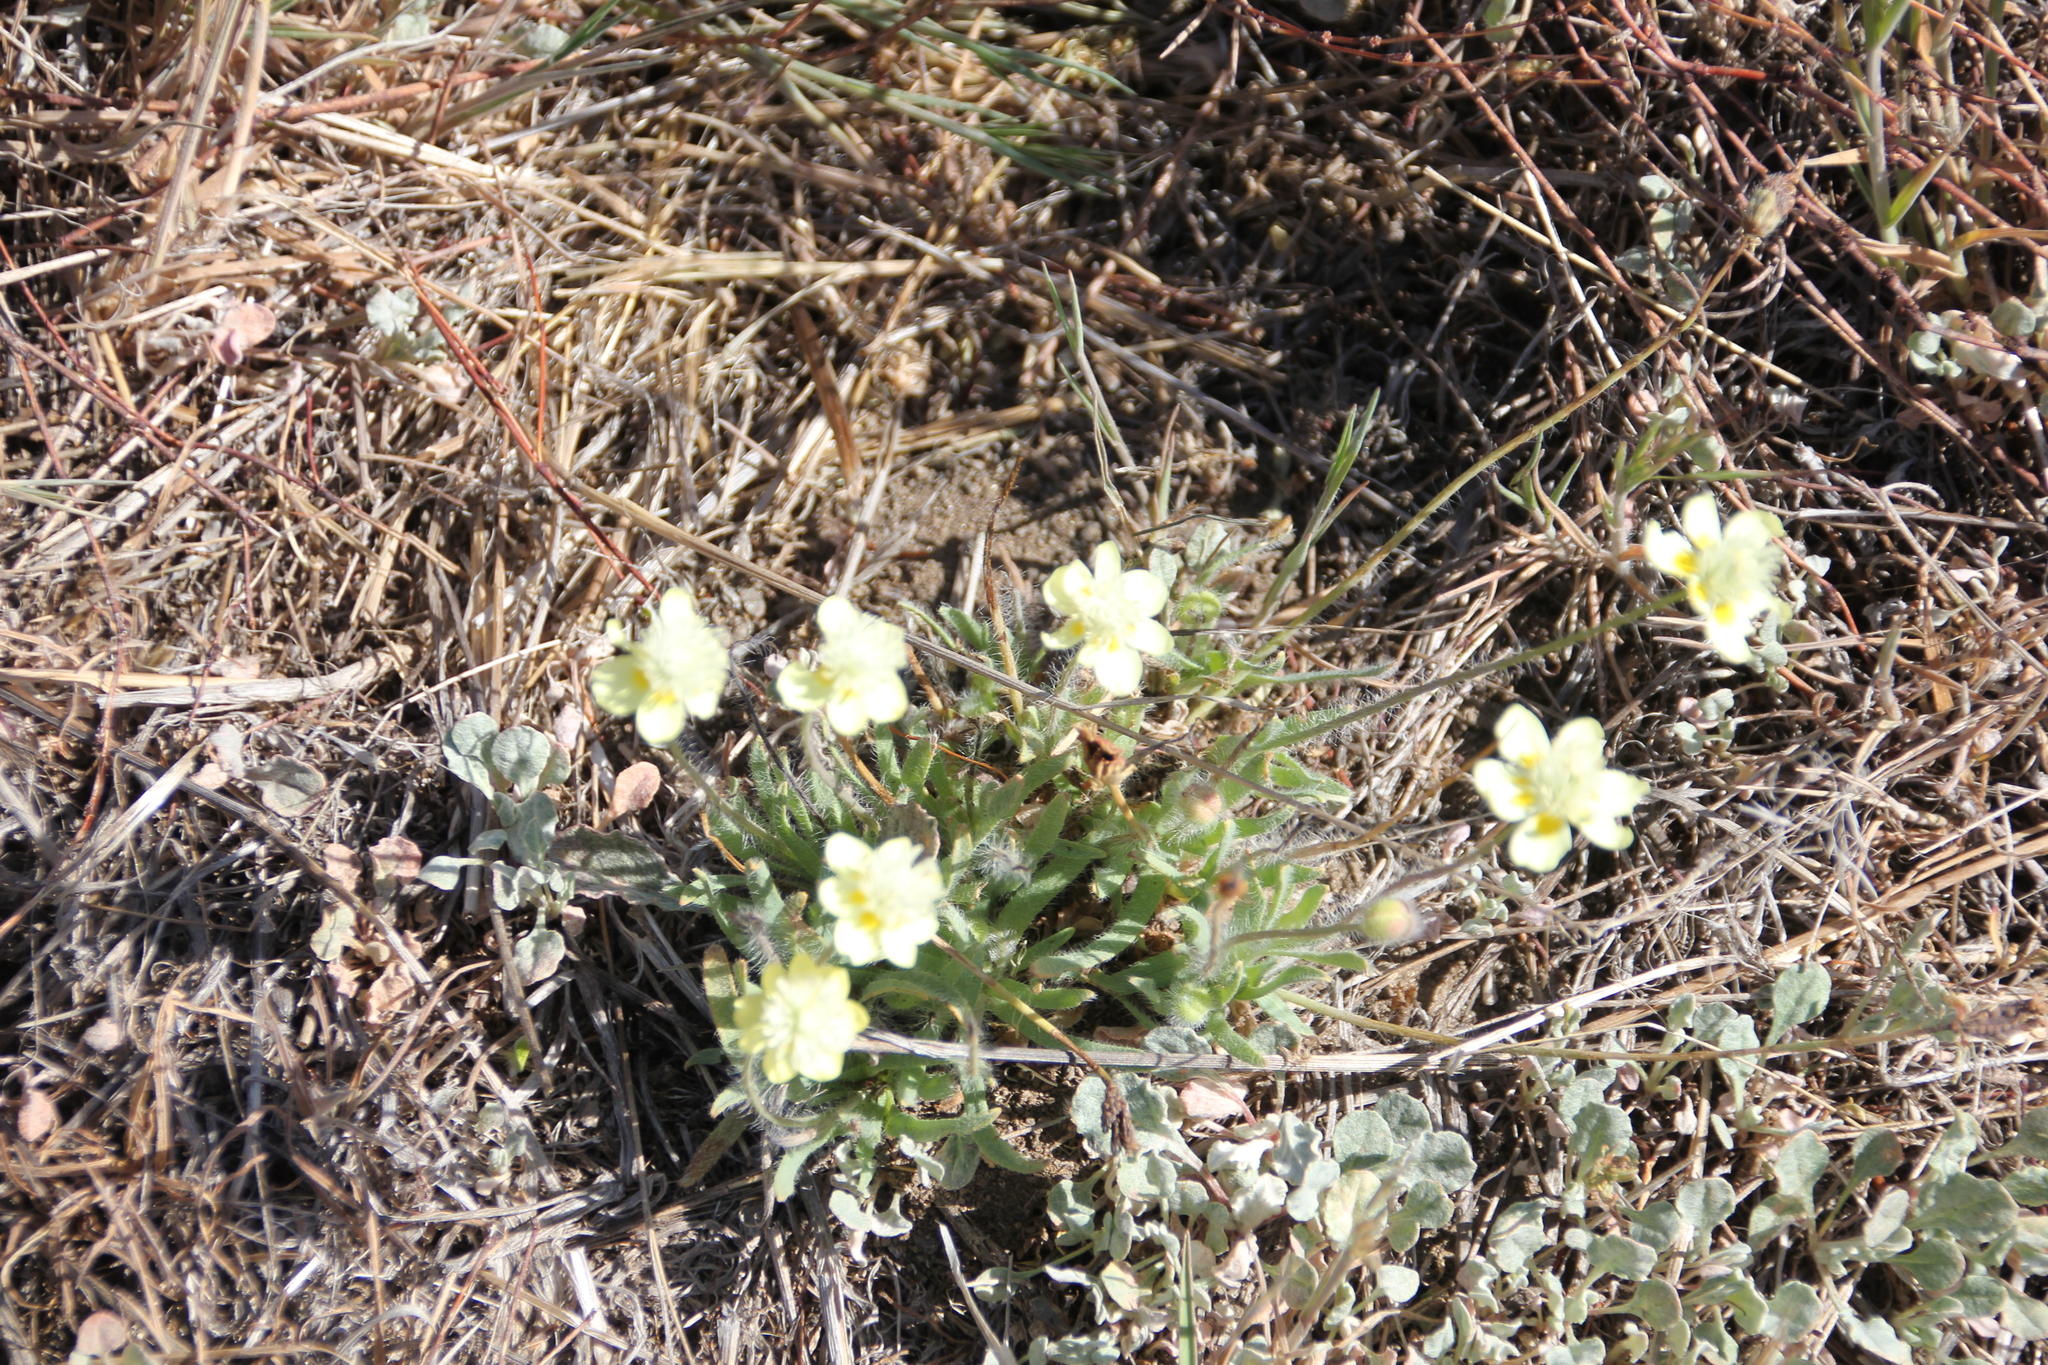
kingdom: Plantae
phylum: Tracheophyta
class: Magnoliopsida
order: Ranunculales
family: Papaveraceae
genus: Platystemon
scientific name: Platystemon californicus
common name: Cream-cups
